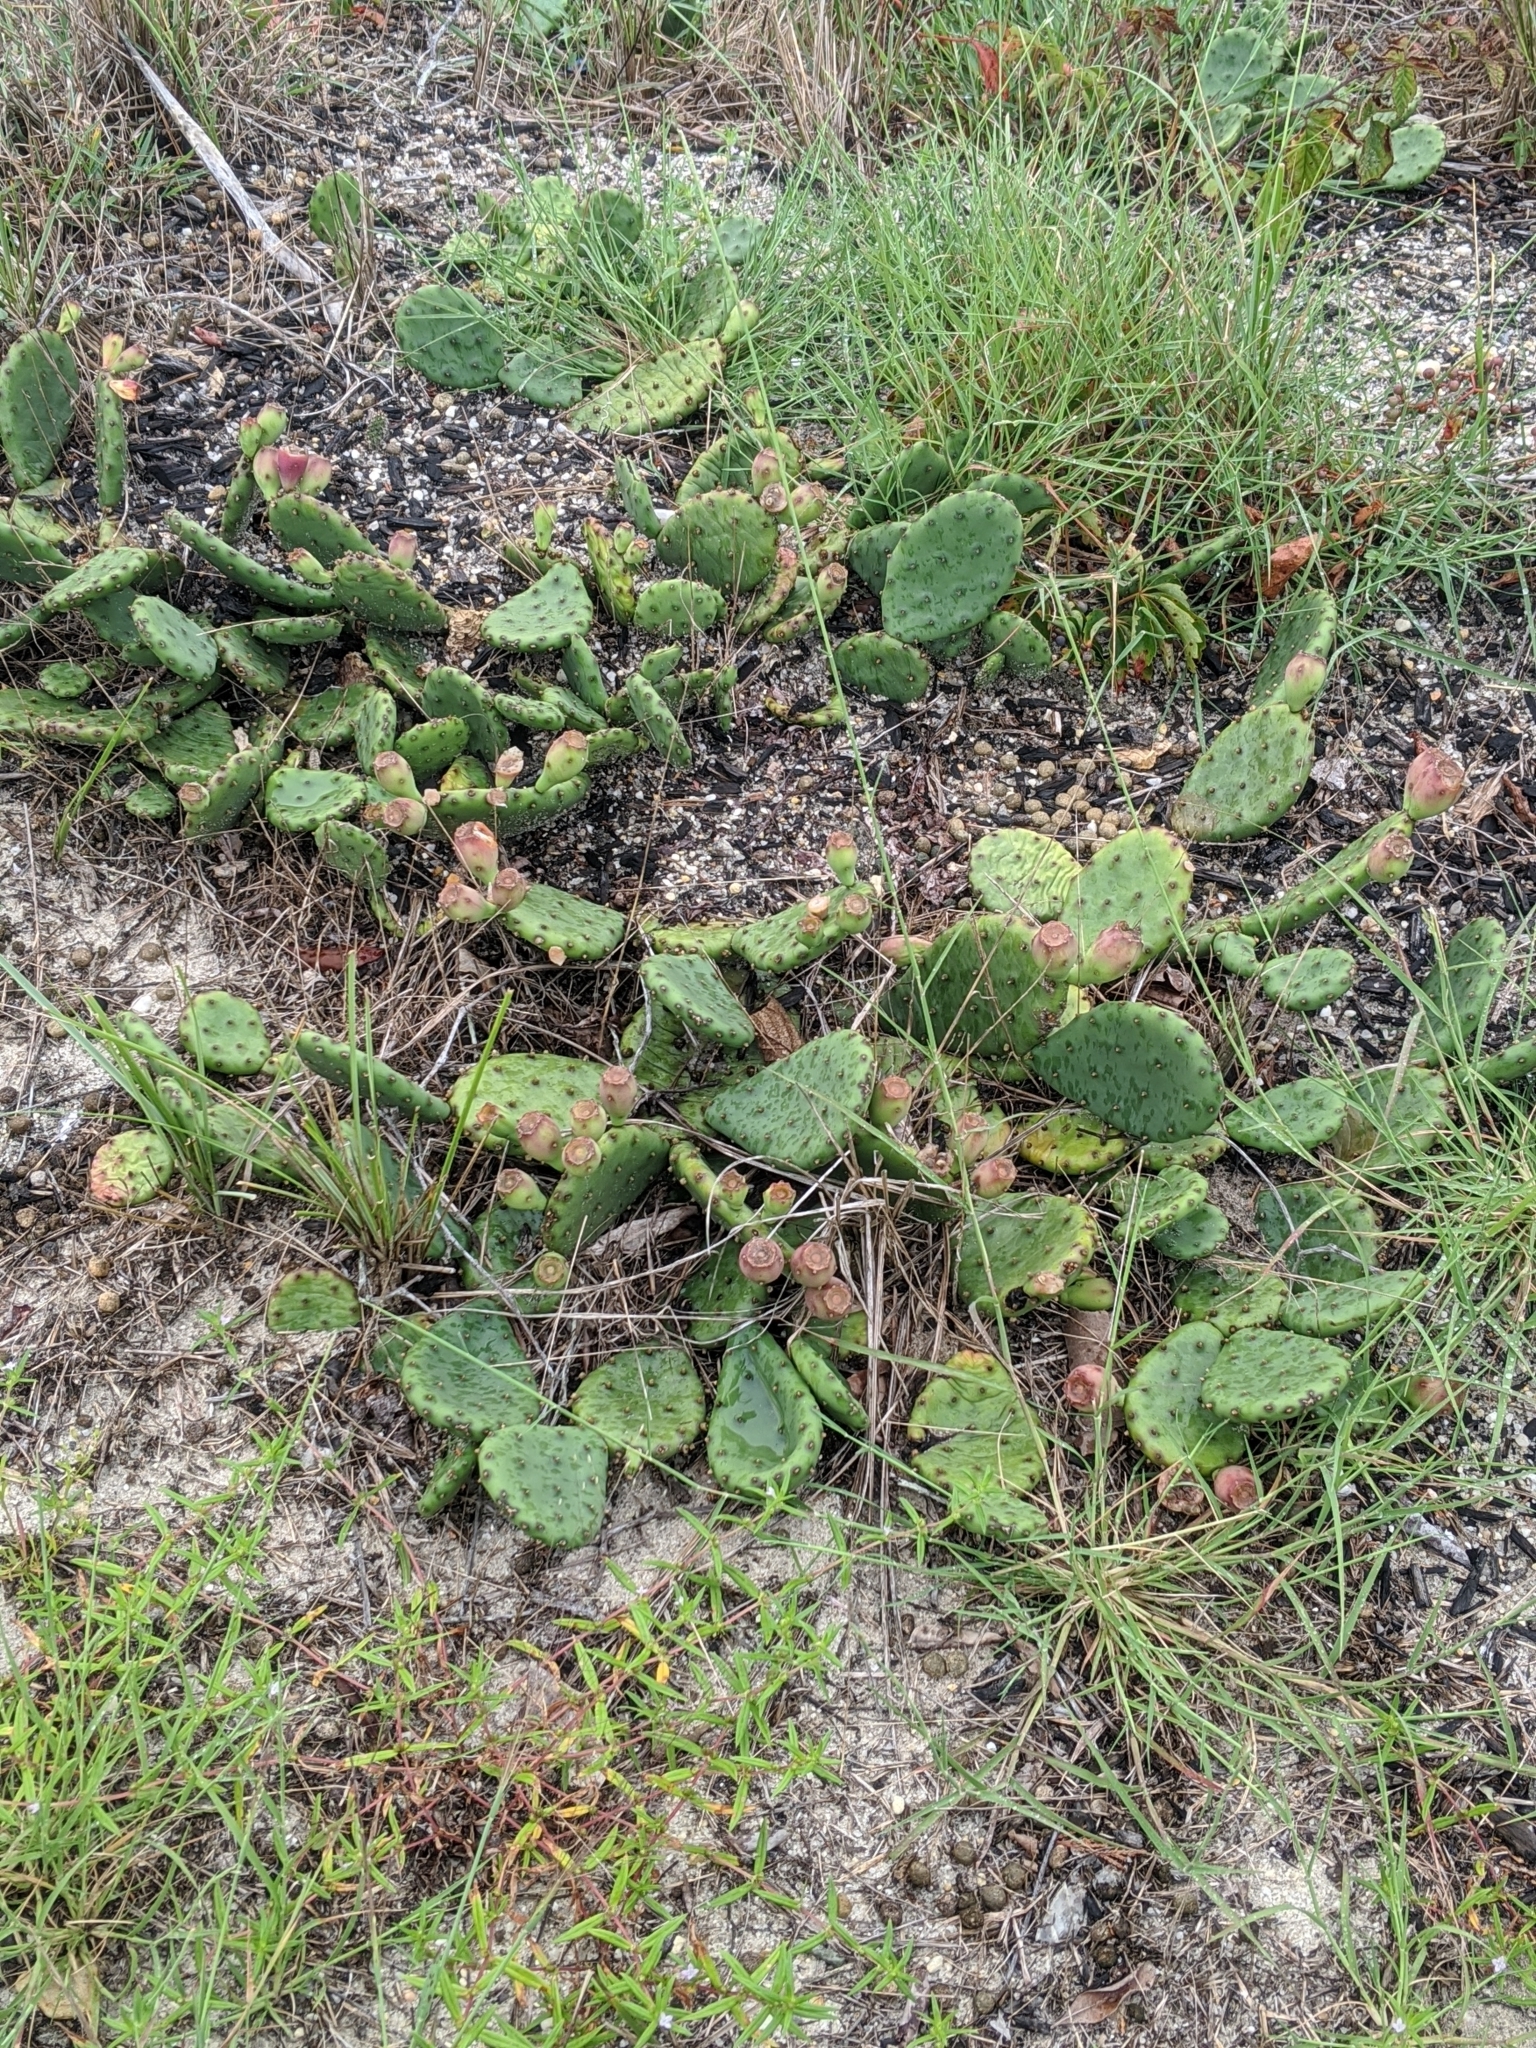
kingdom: Plantae
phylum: Tracheophyta
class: Magnoliopsida
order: Caryophyllales
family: Cactaceae
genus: Opuntia
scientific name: Opuntia humifusa
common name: Eastern prickly-pear
